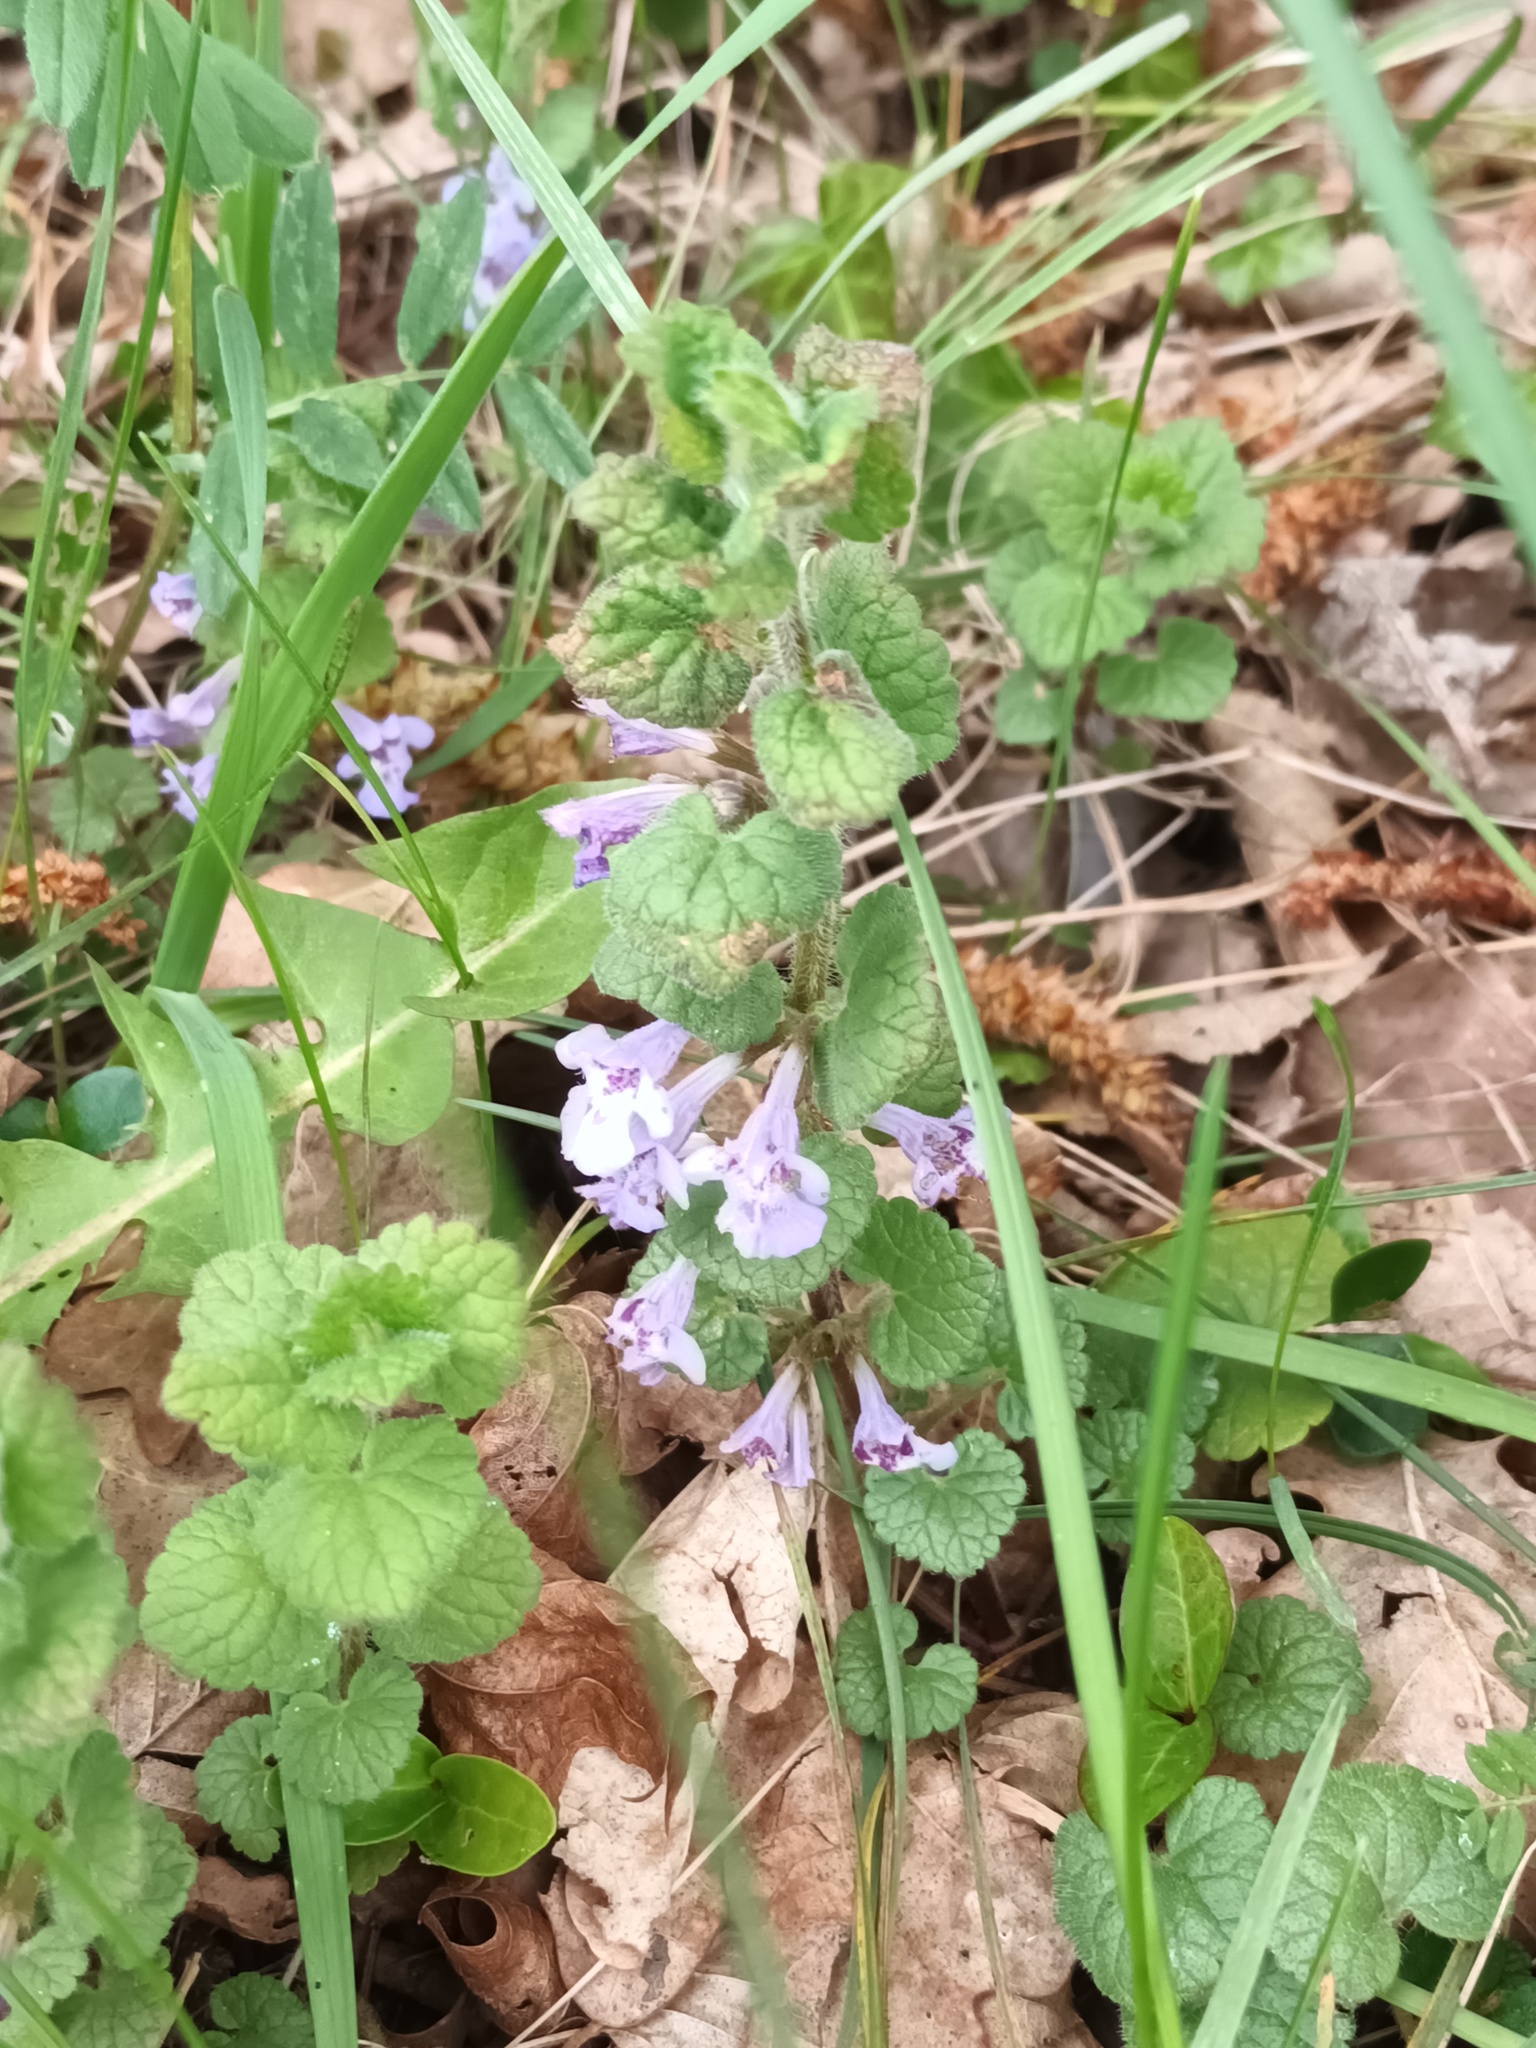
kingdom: Plantae
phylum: Tracheophyta
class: Magnoliopsida
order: Lamiales
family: Lamiaceae
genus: Glechoma
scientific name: Glechoma hederacea
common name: Ground ivy
